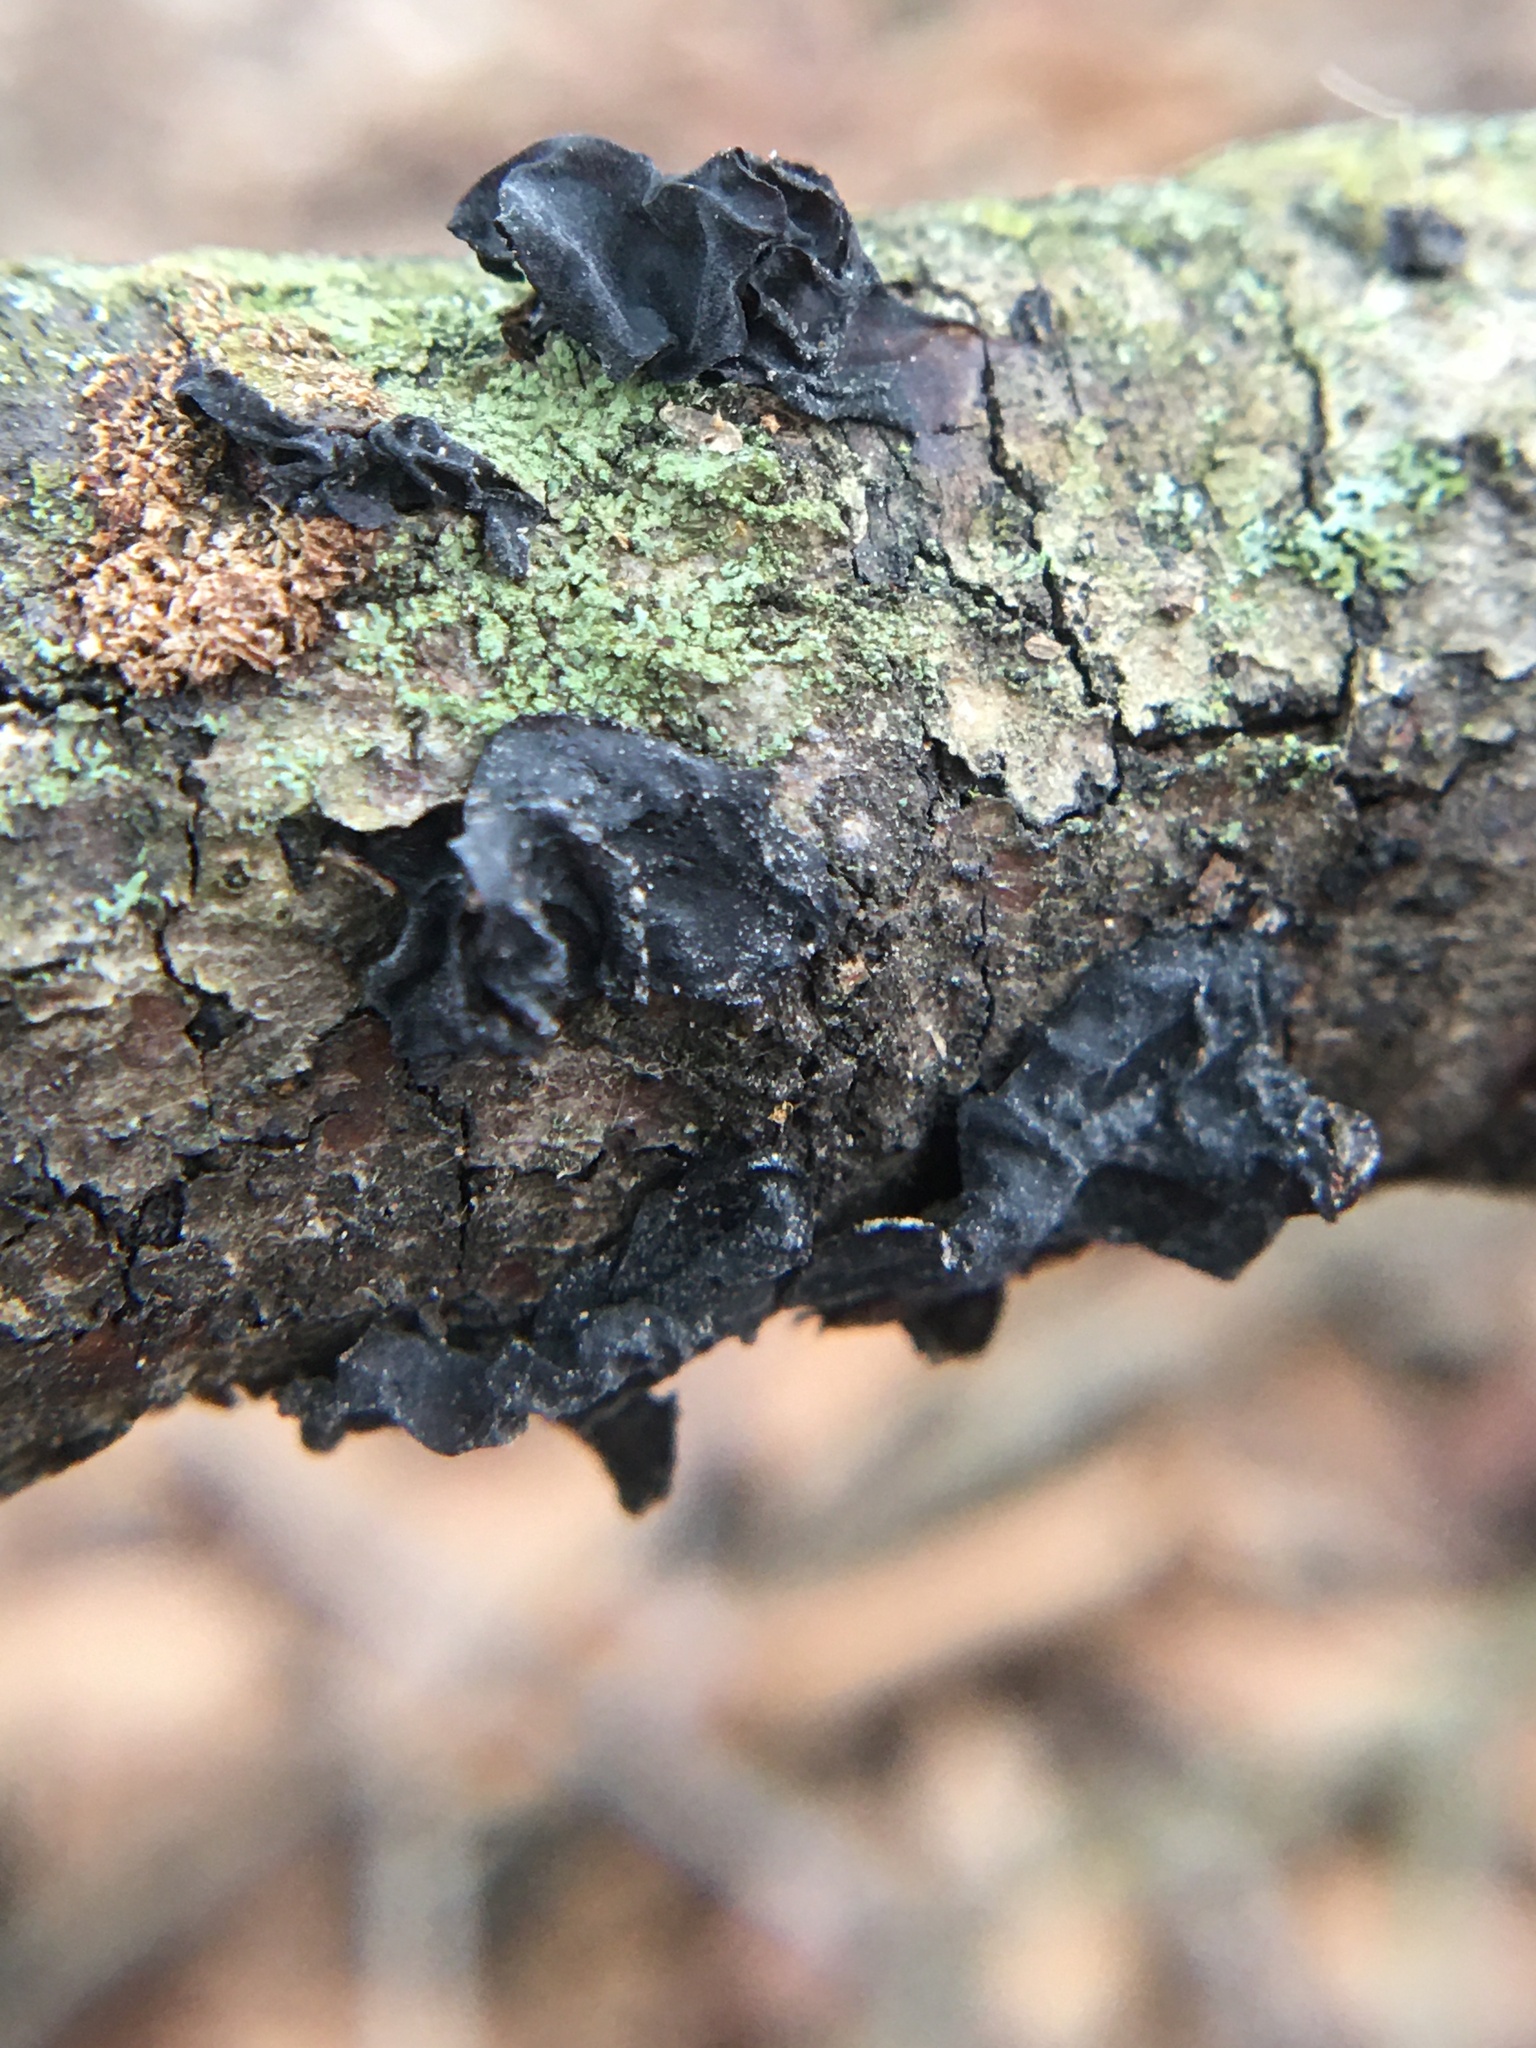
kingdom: Fungi
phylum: Basidiomycota
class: Agaricomycetes
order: Auriculariales
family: Auriculariaceae
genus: Exidia
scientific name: Exidia
